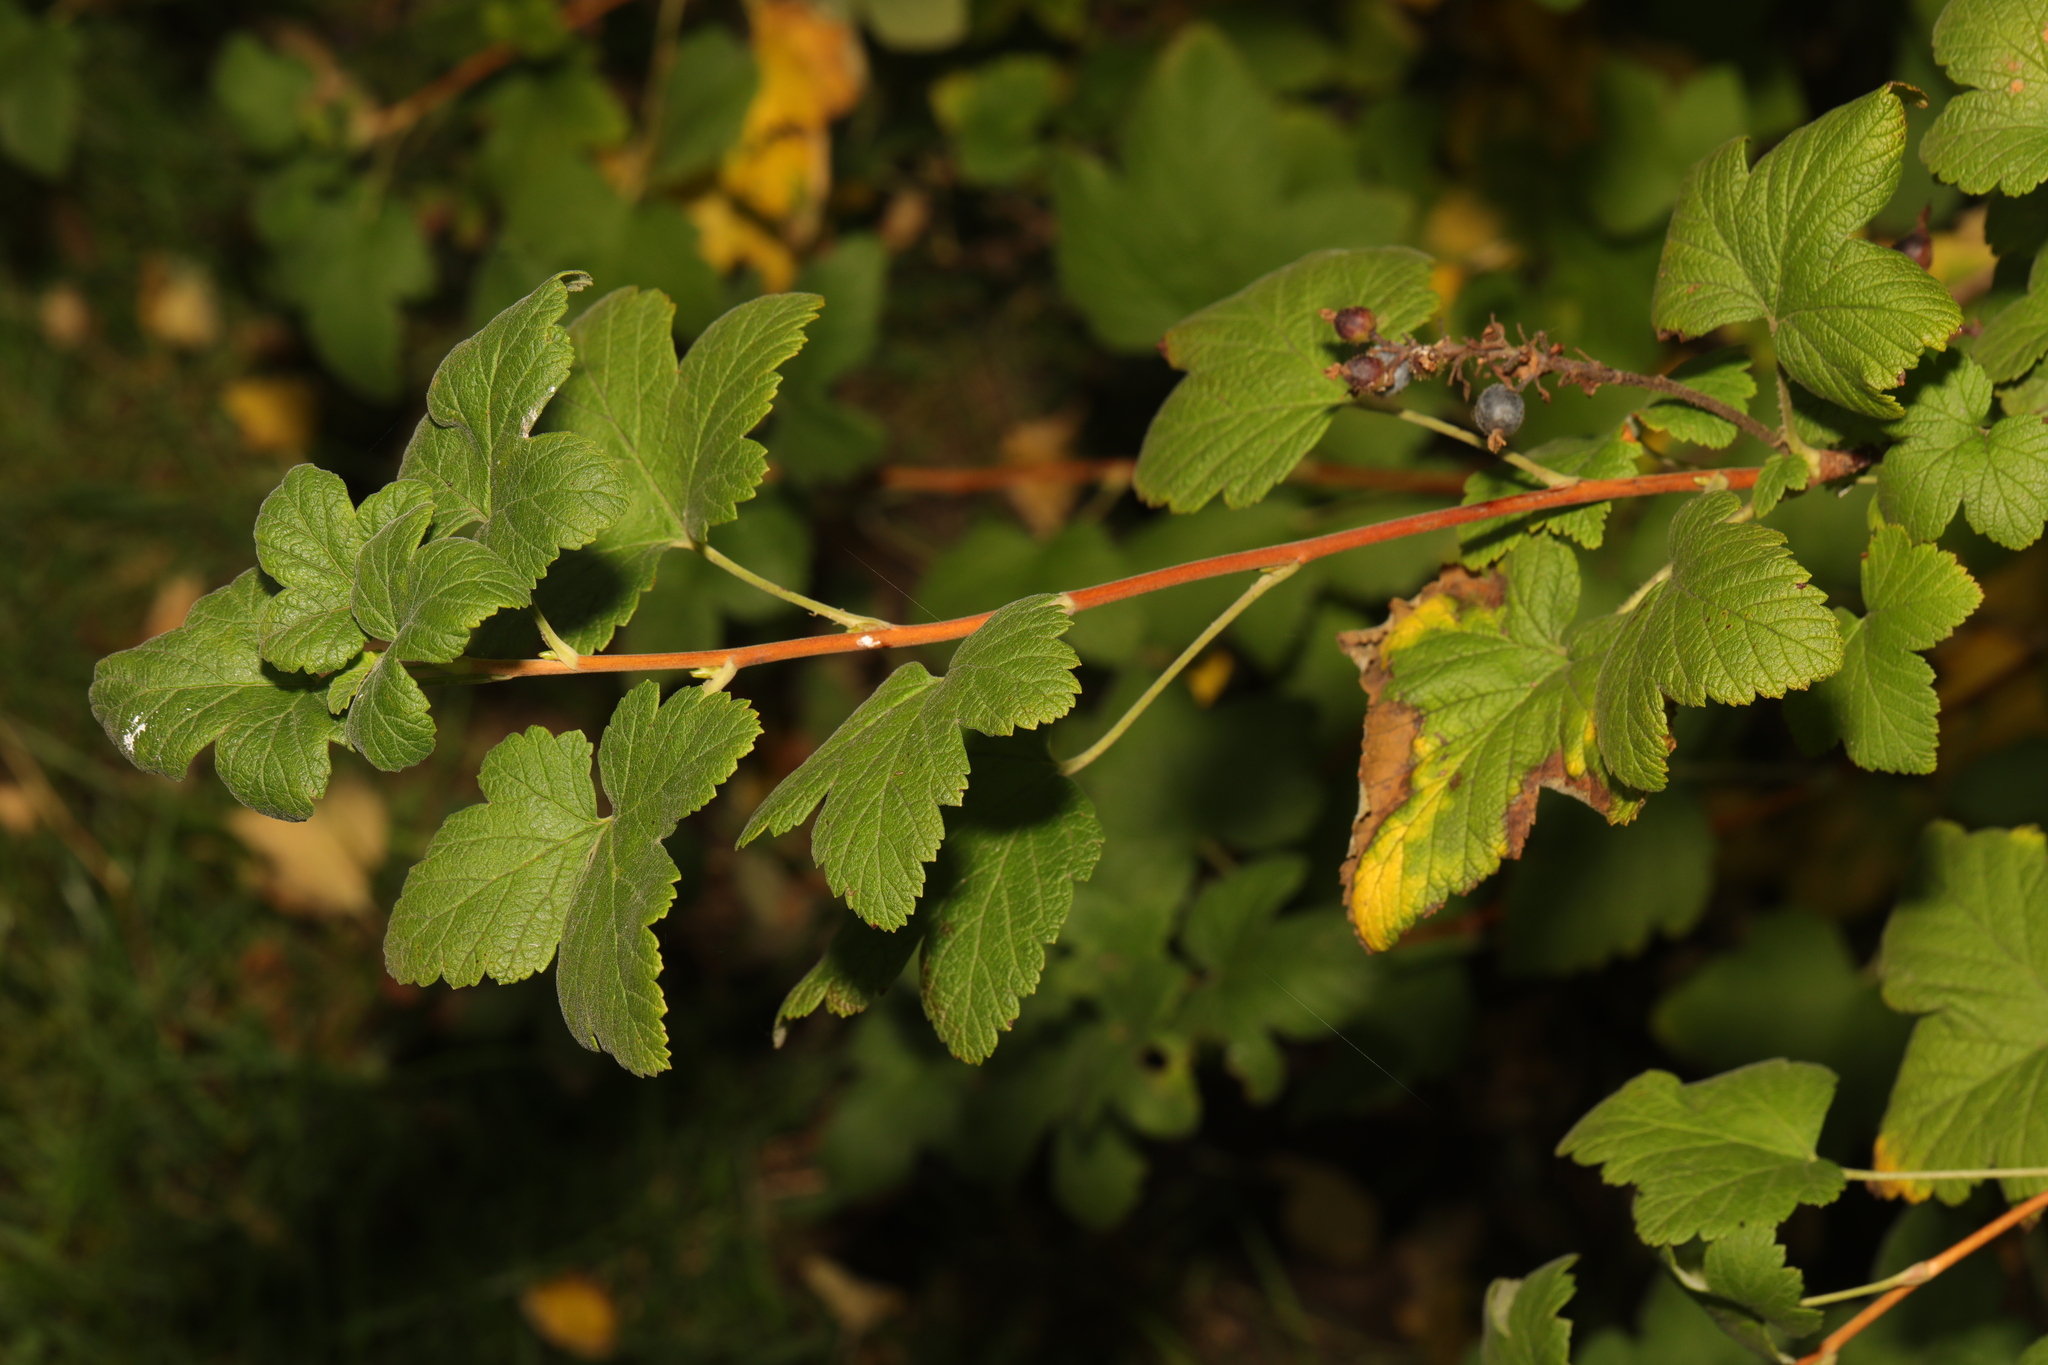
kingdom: Plantae
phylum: Tracheophyta
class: Magnoliopsida
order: Saxifragales
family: Grossulariaceae
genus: Ribes
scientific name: Ribes sanguineum
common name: Flowering currant
